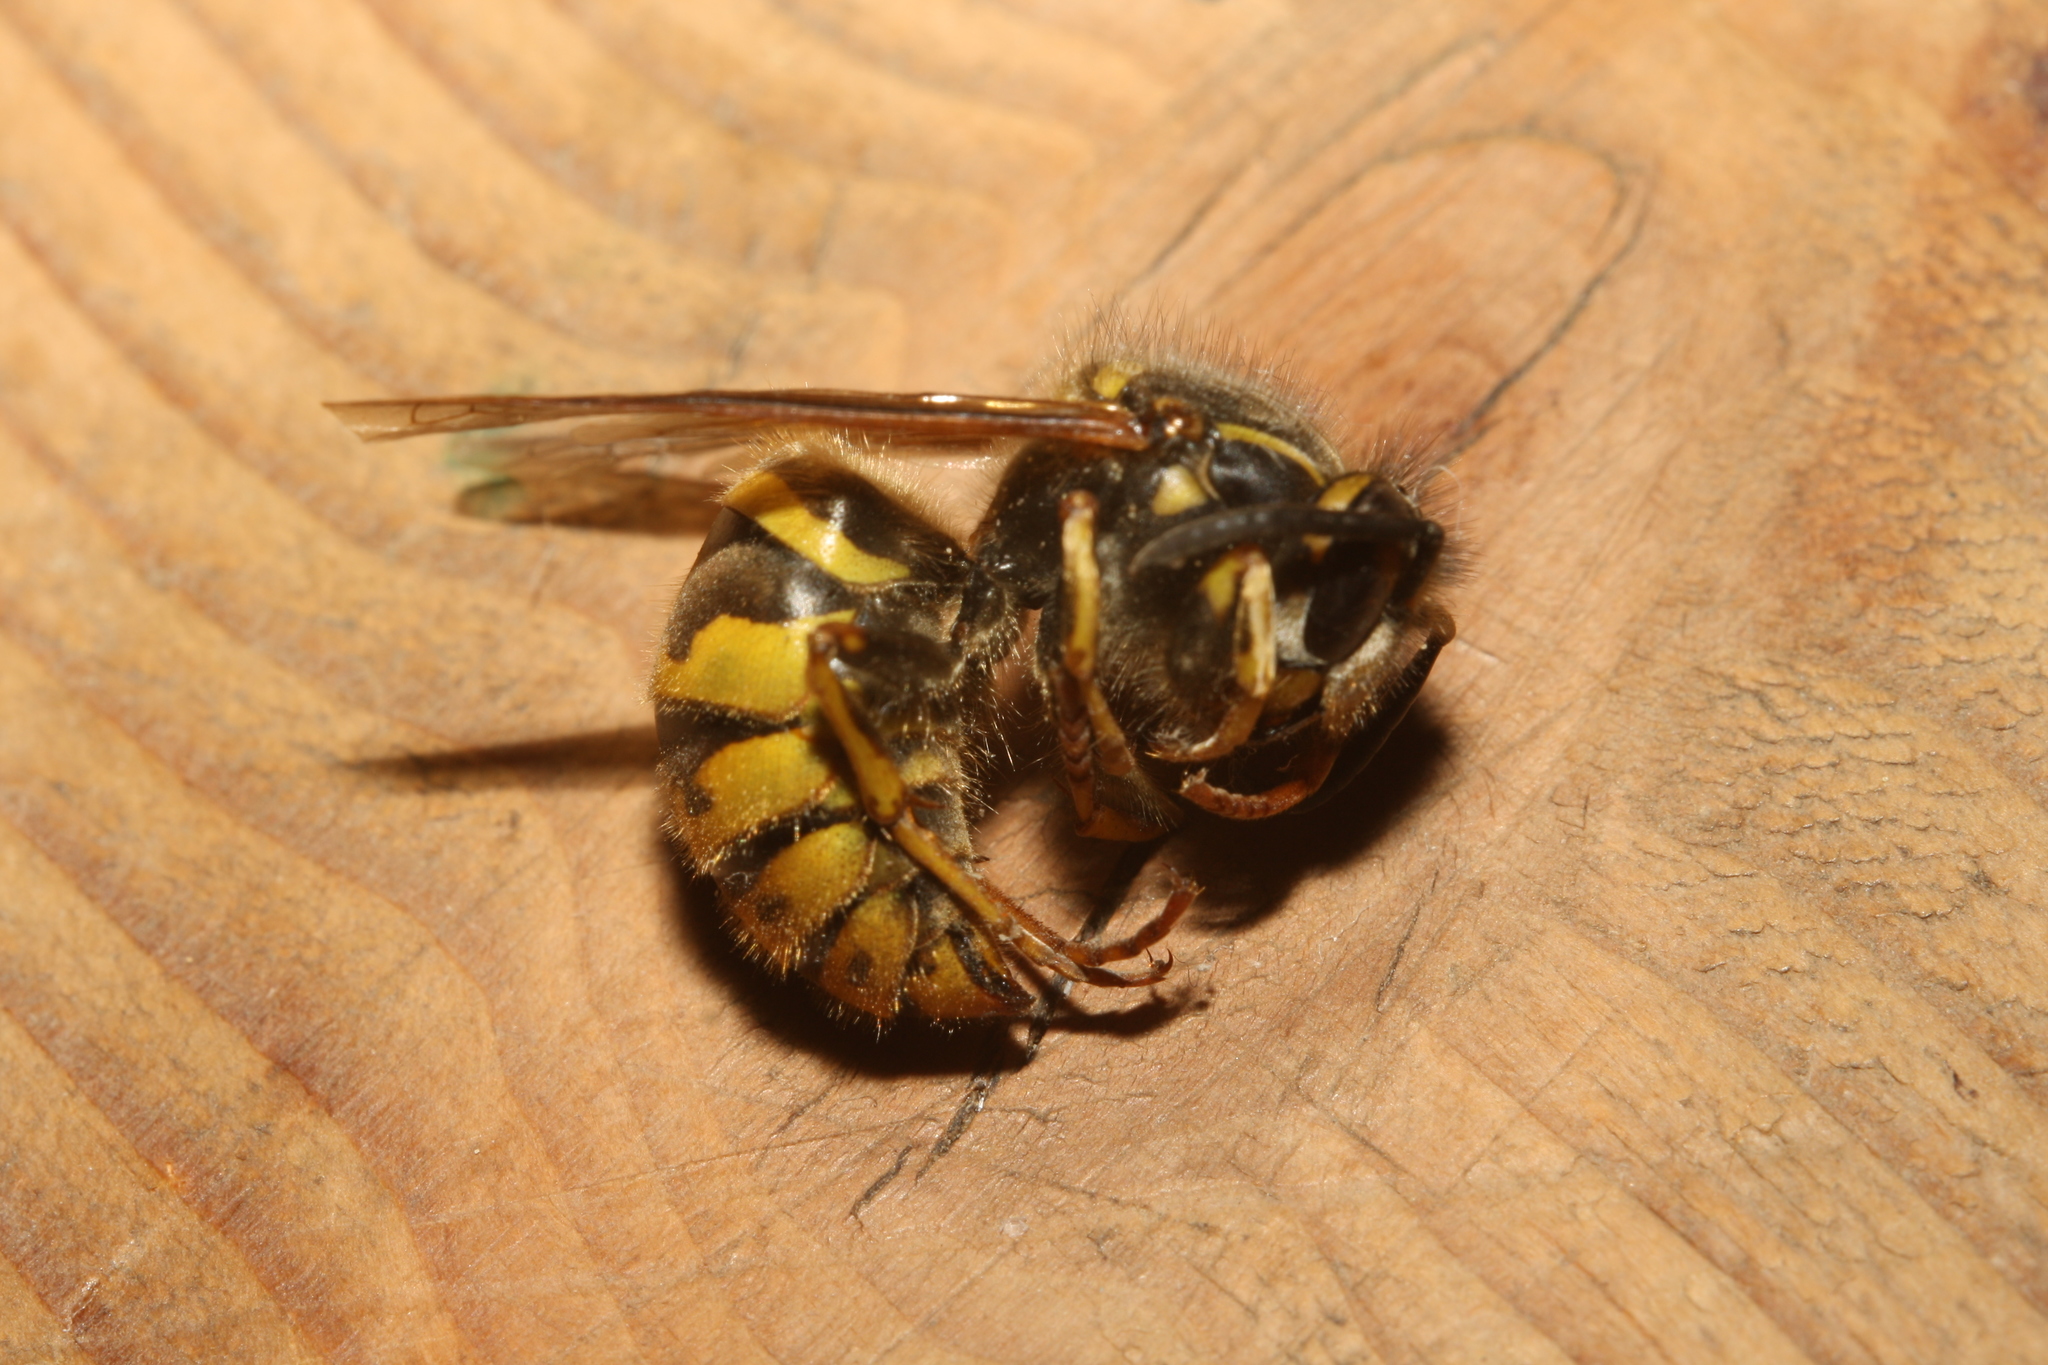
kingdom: Animalia
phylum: Arthropoda
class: Insecta
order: Hymenoptera
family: Vespidae
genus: Vespula
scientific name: Vespula vulgaris
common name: Common wasp
